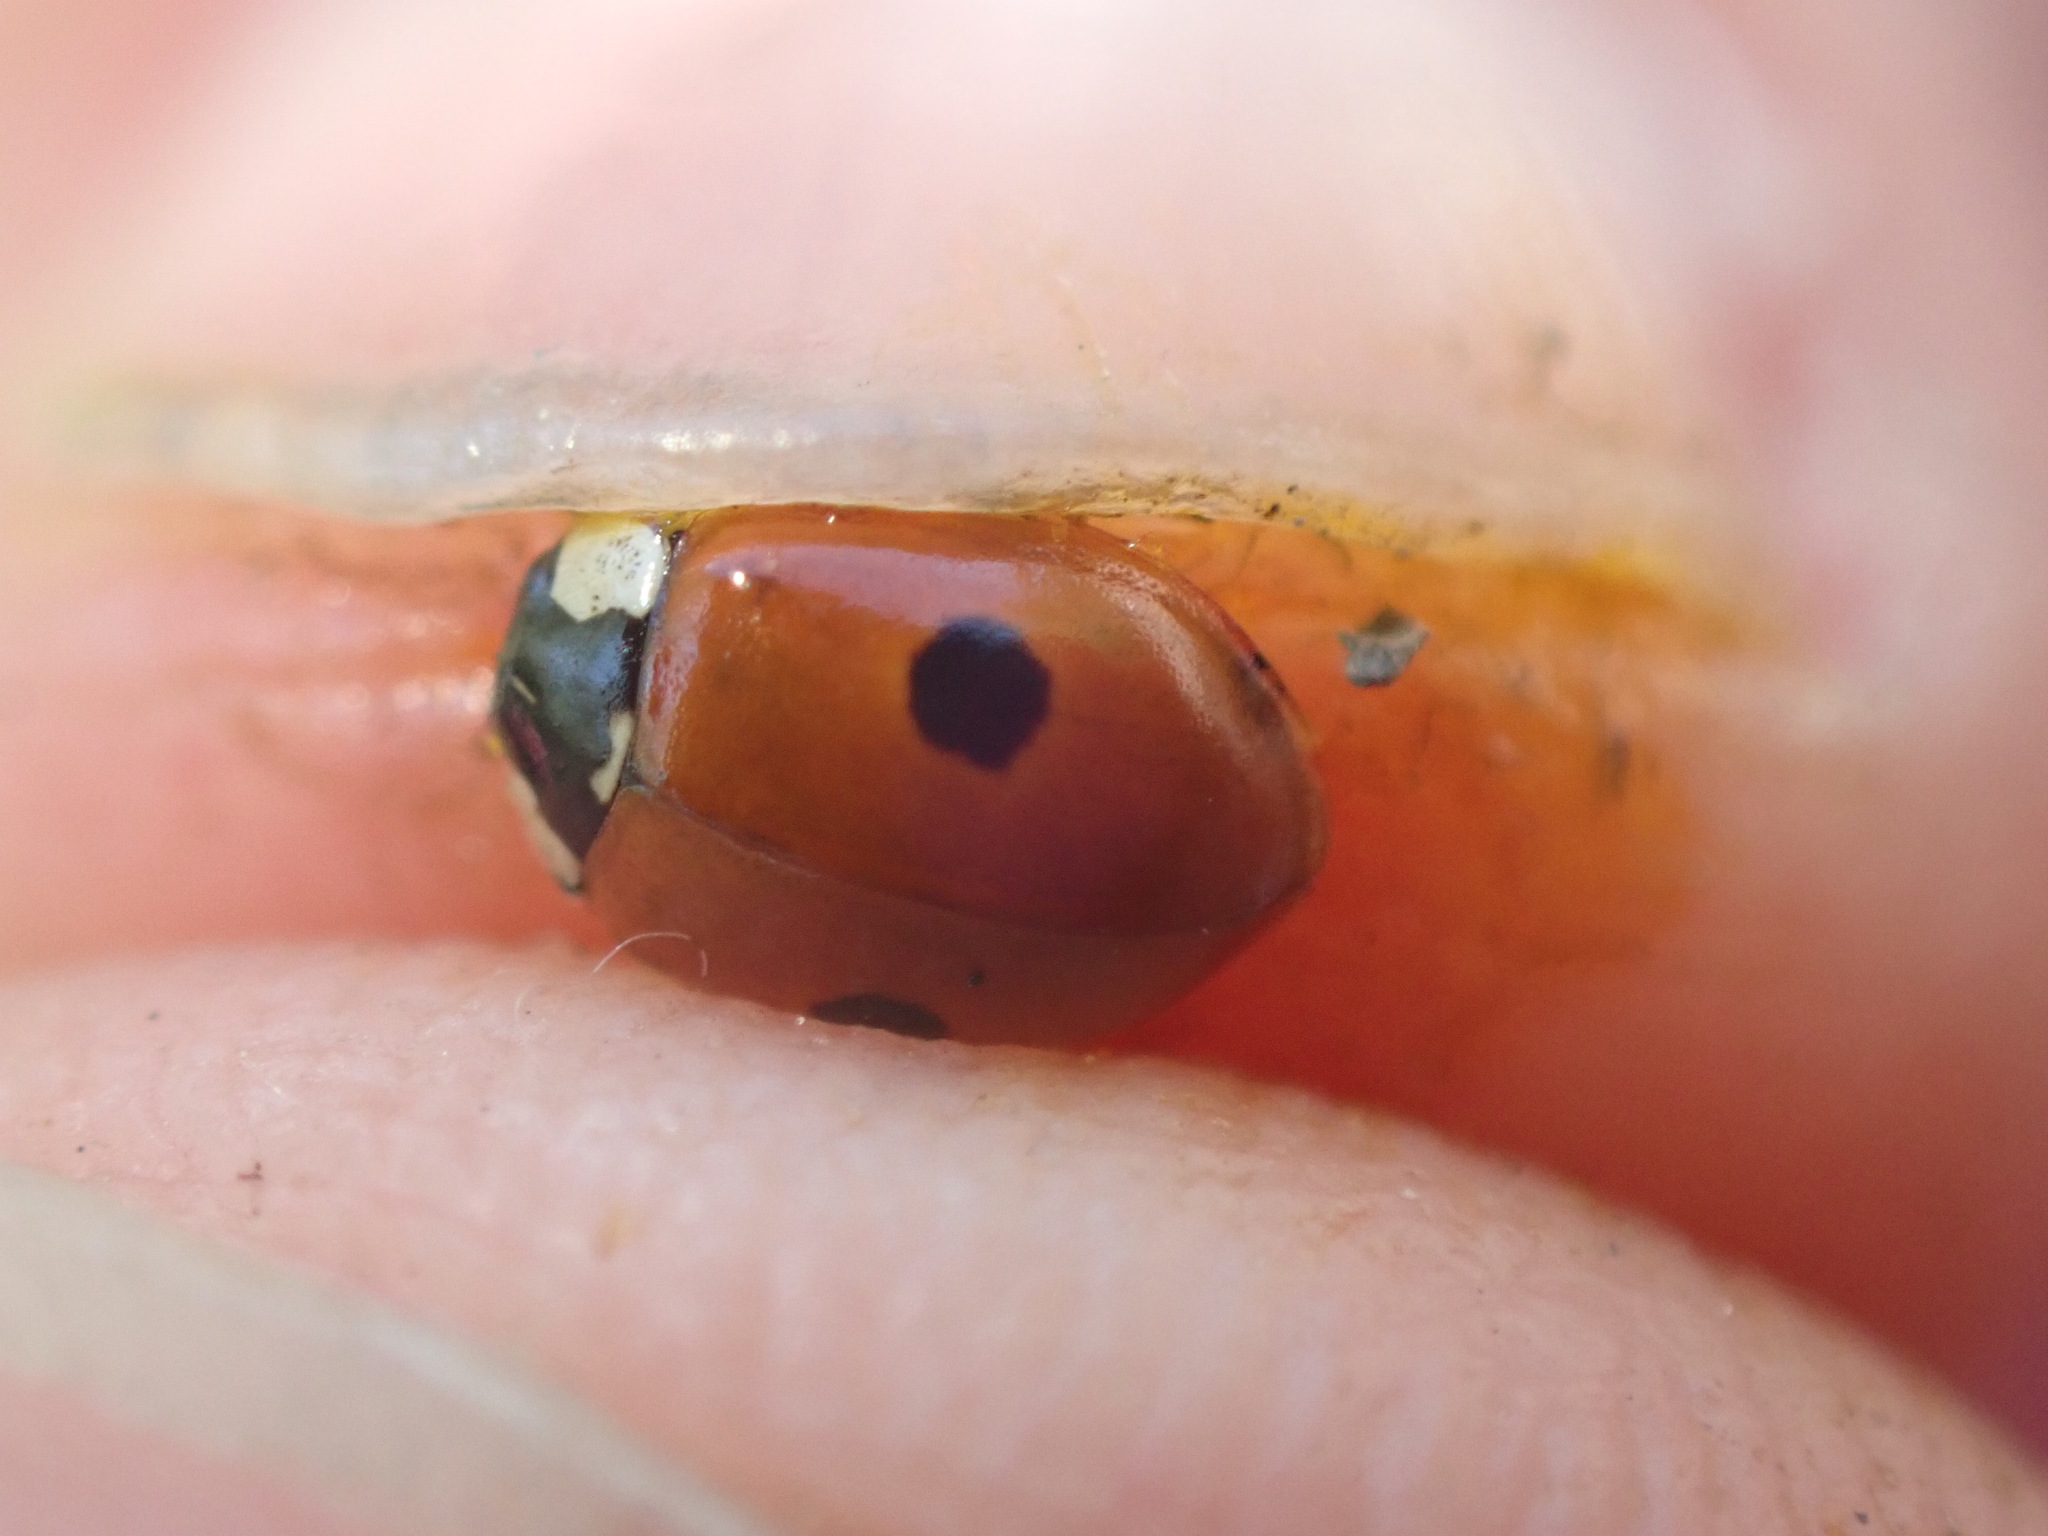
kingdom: Animalia
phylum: Arthropoda
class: Insecta
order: Coleoptera
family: Coccinellidae
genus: Adalia
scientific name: Adalia bipunctata
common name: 2-spot ladybird
